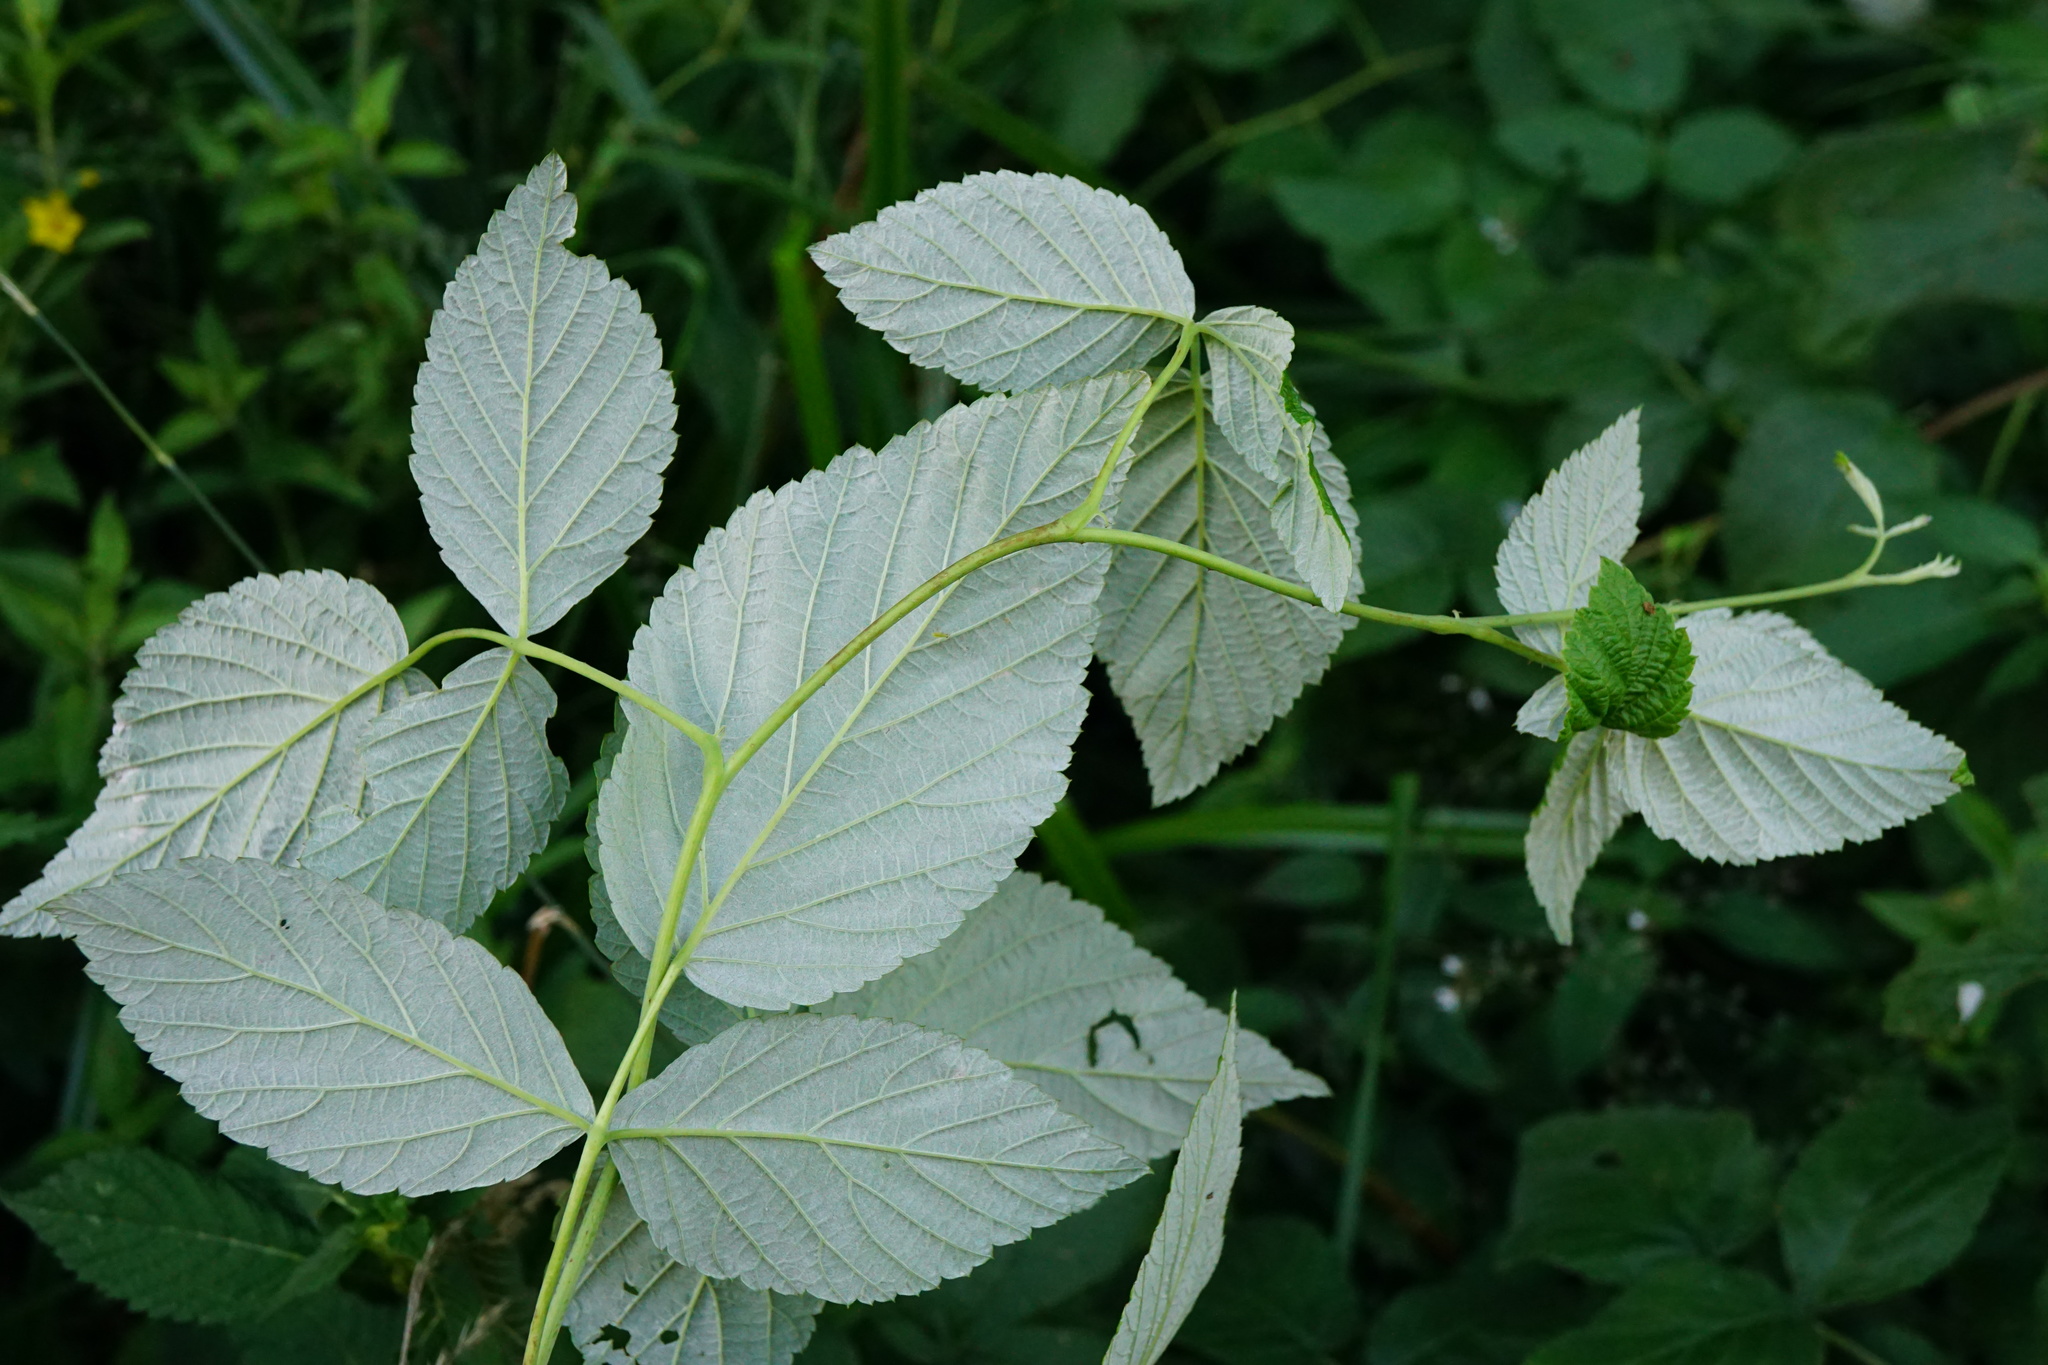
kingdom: Plantae
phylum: Tracheophyta
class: Magnoliopsida
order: Rosales
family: Rosaceae
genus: Rubus
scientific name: Rubus idaeus
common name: Raspberry
